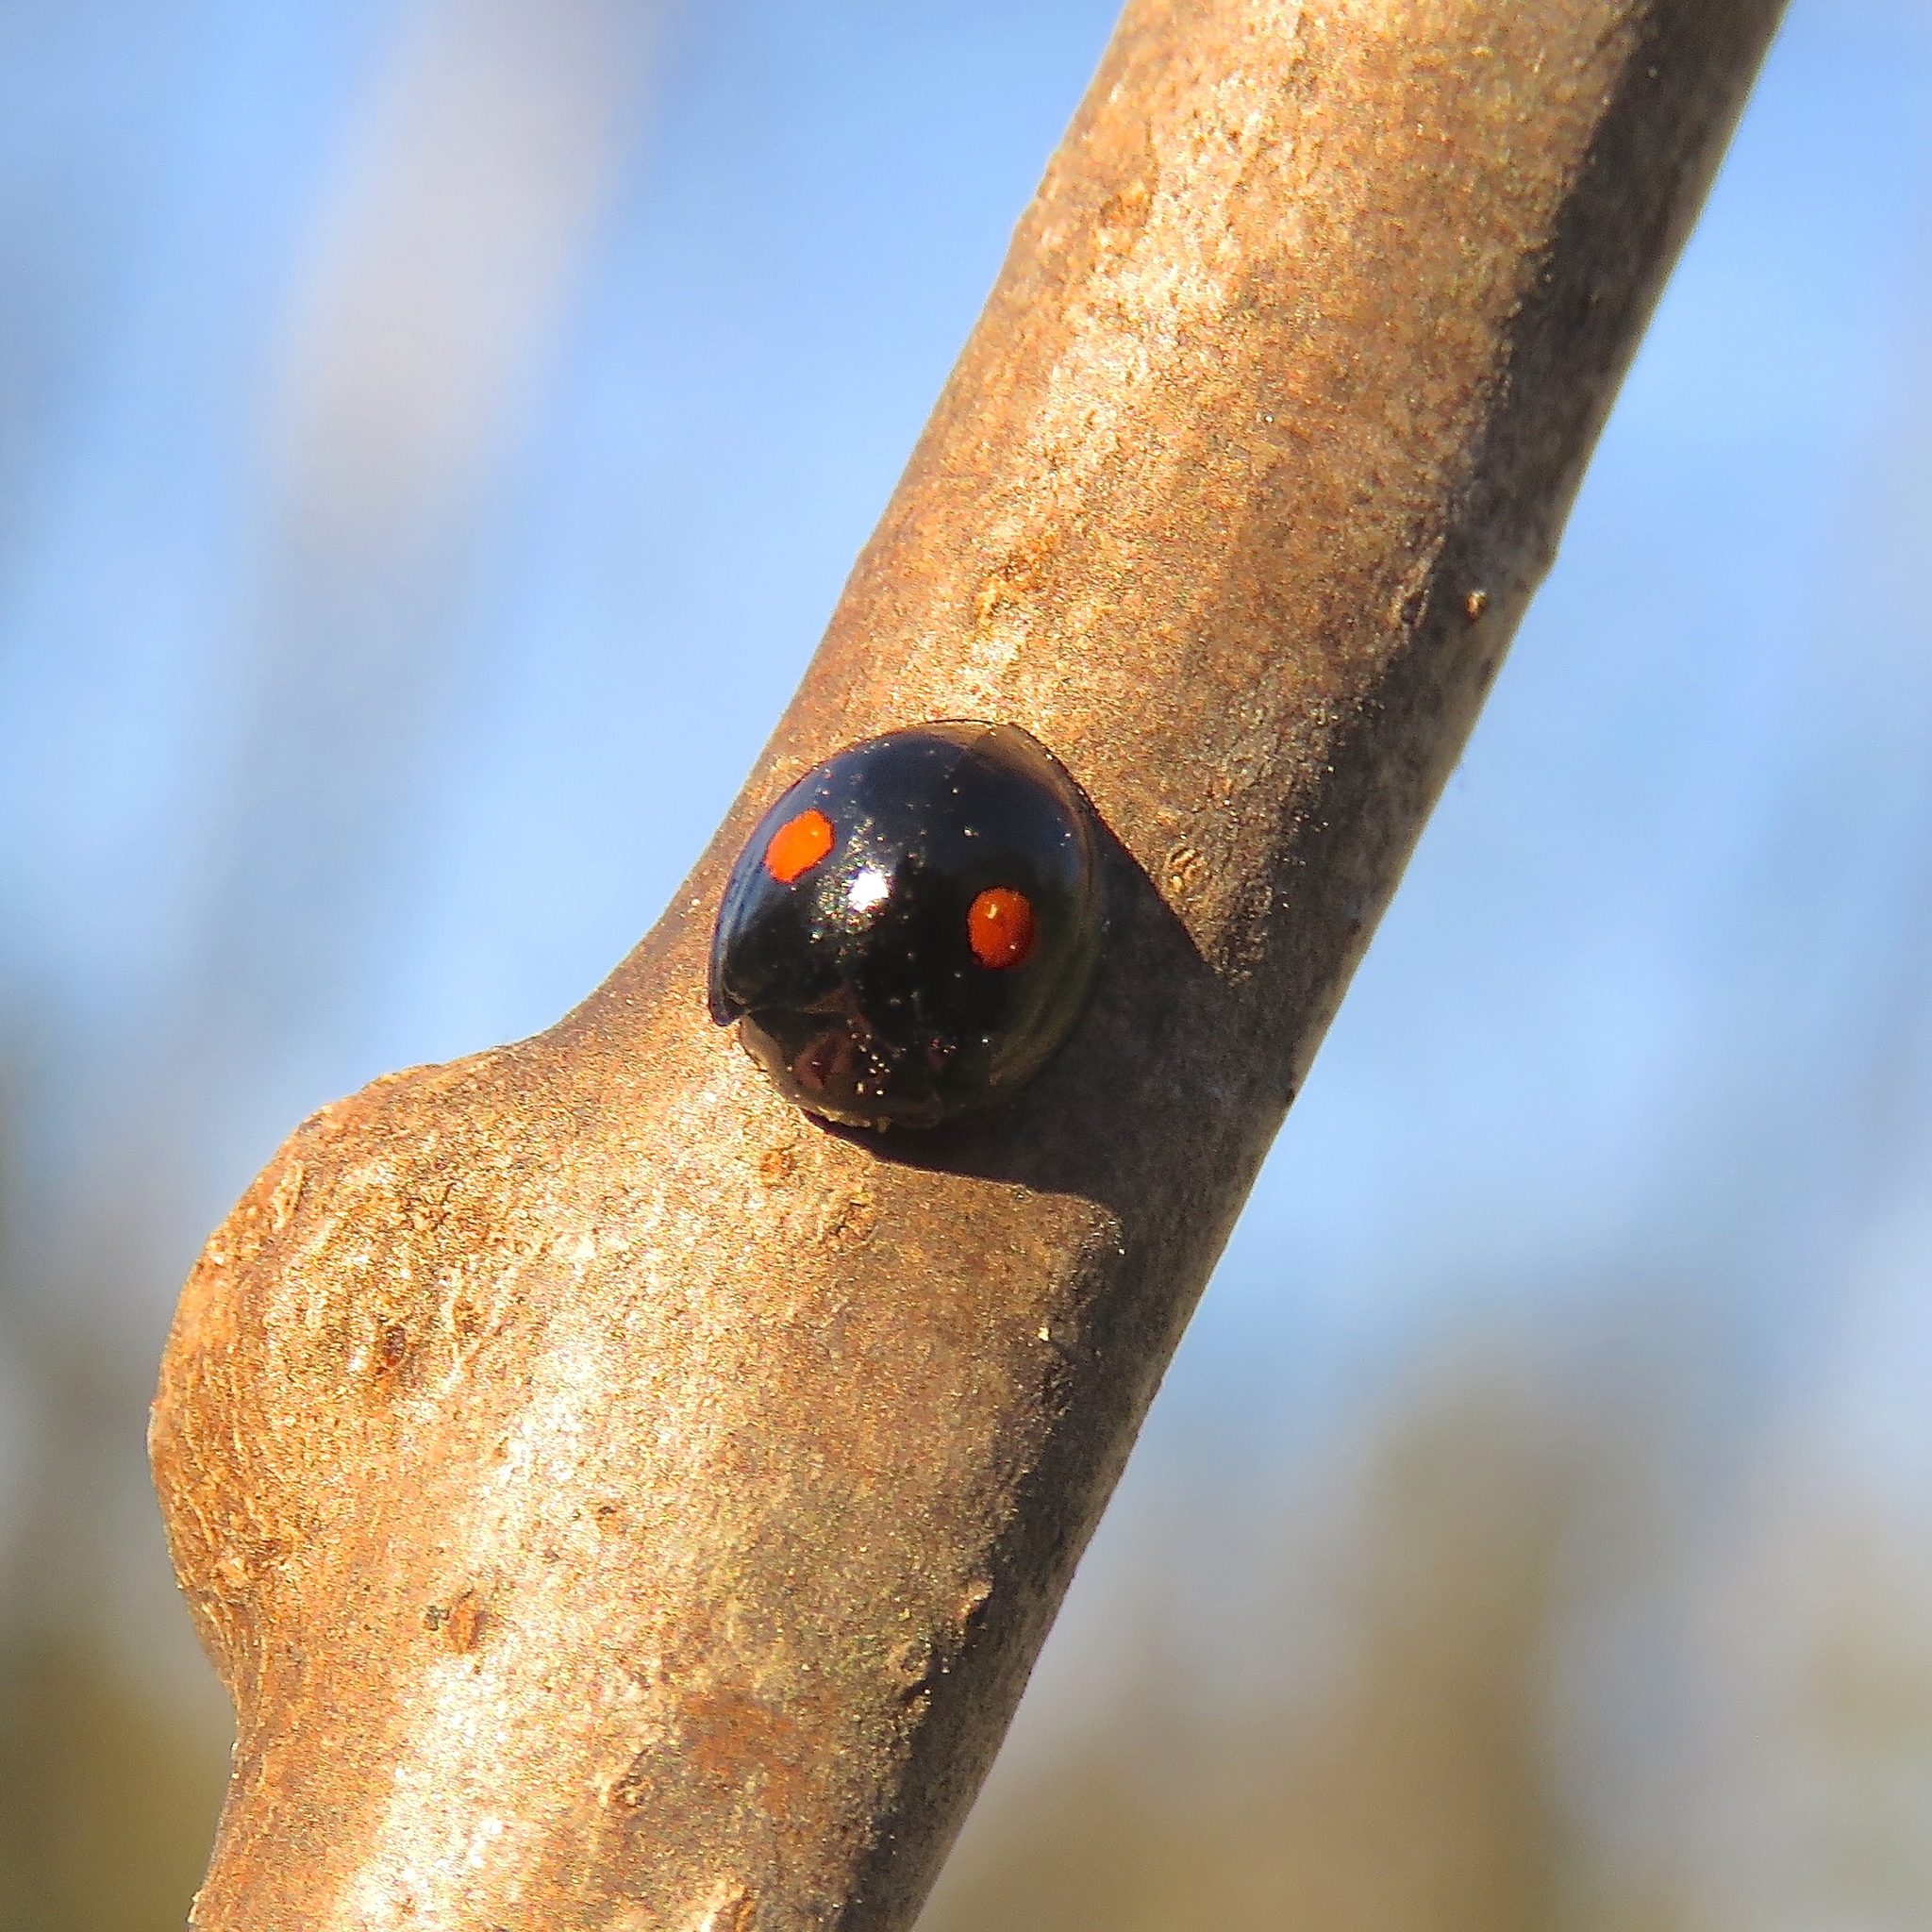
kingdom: Animalia
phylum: Arthropoda
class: Insecta
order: Coleoptera
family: Coccinellidae
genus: Chilocorus
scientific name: Chilocorus stigma
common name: Twicestabbed lady beetle
